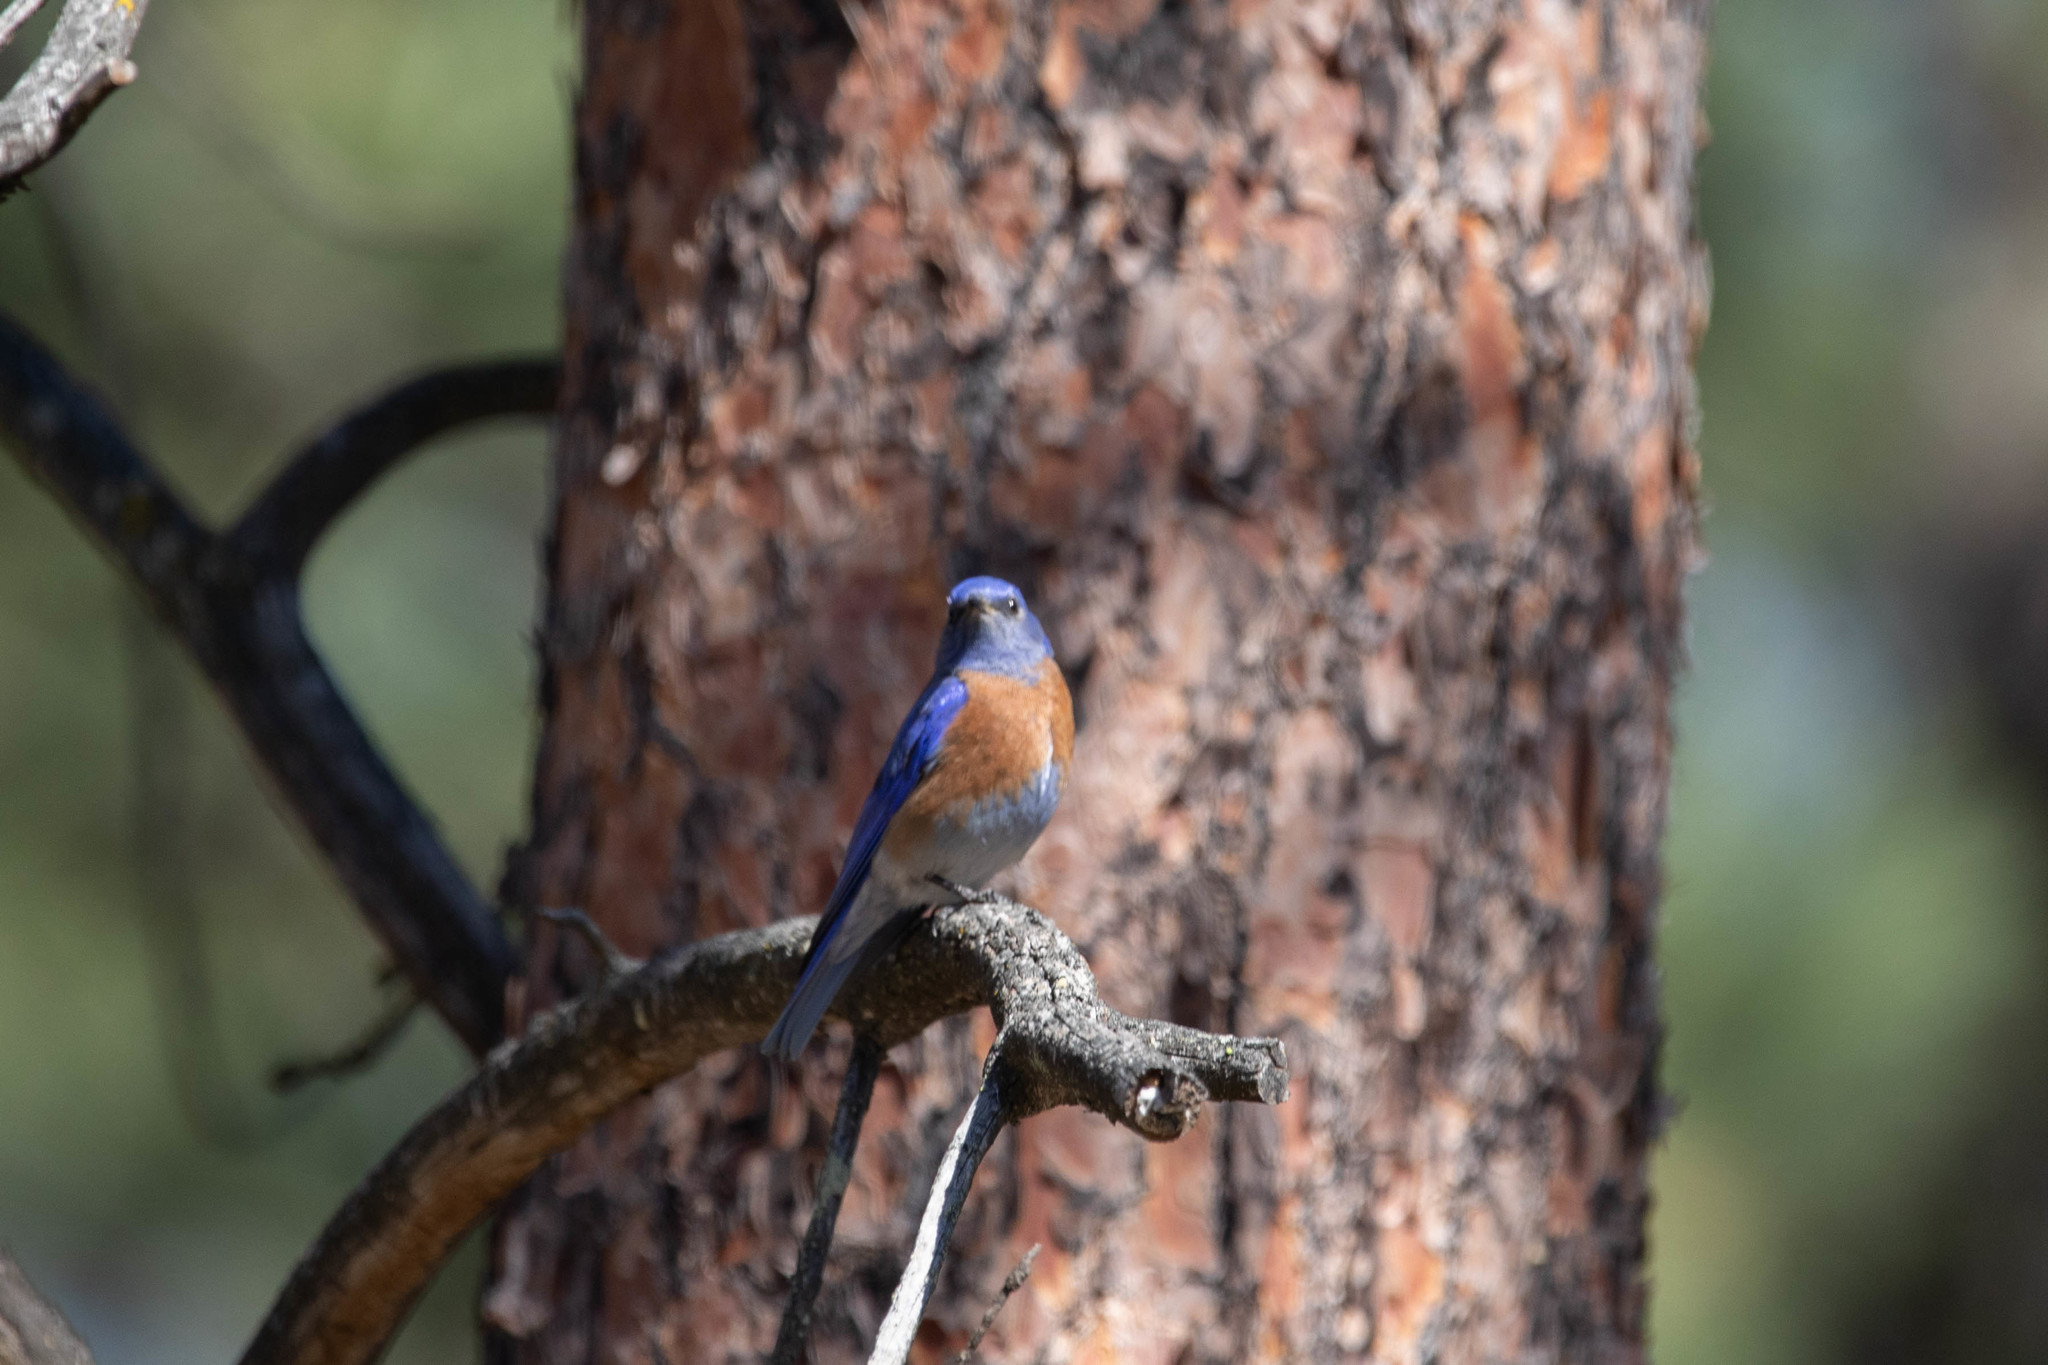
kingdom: Animalia
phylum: Chordata
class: Aves
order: Passeriformes
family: Turdidae
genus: Sialia
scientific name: Sialia mexicana
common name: Western bluebird
